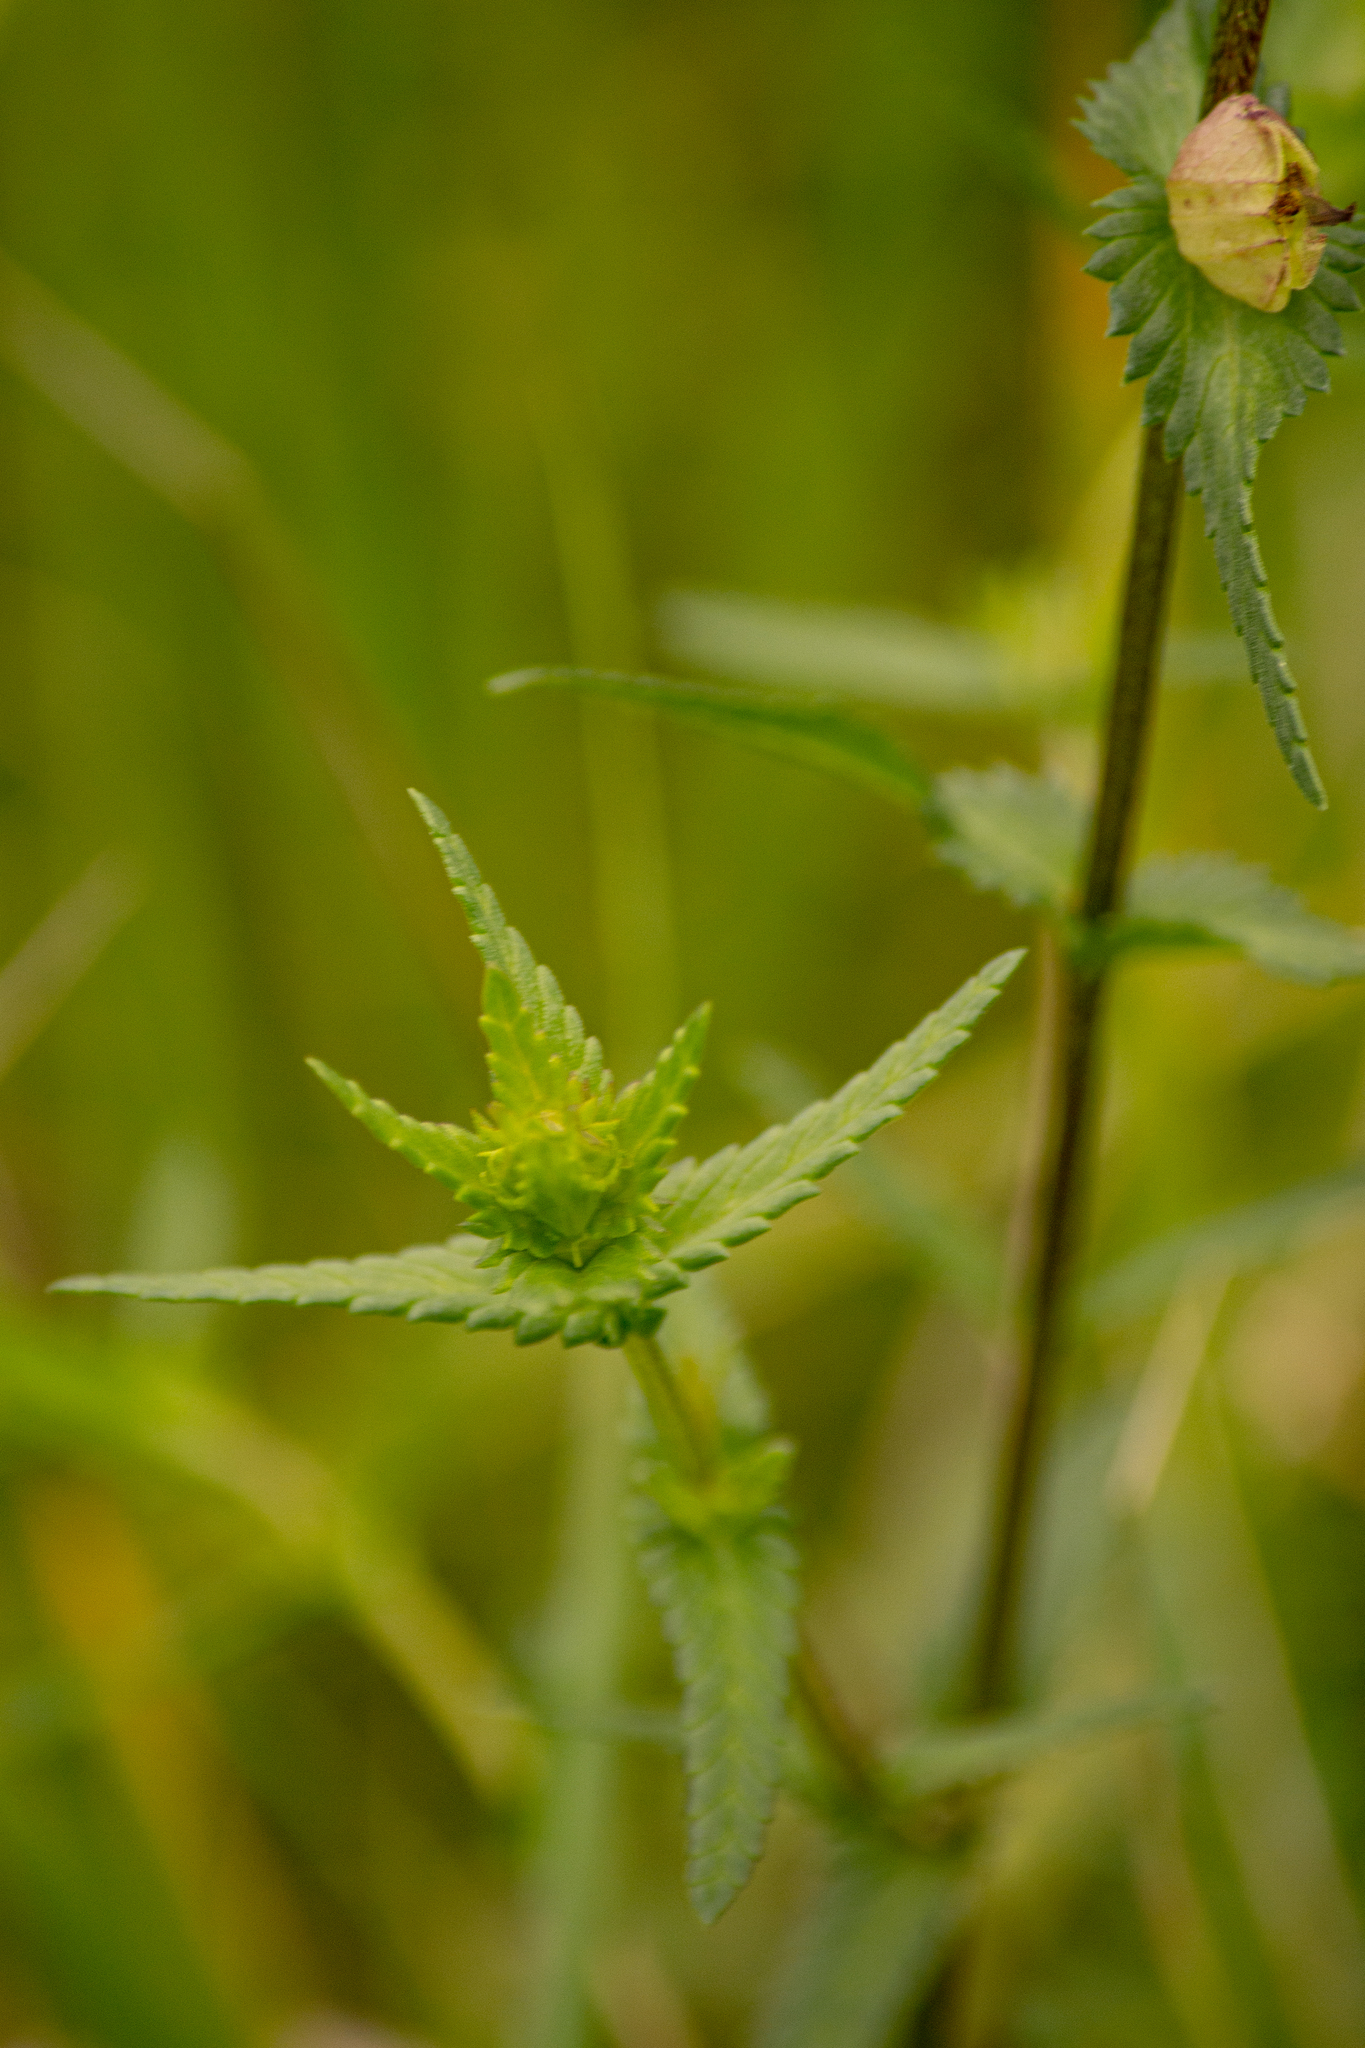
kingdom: Plantae
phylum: Tracheophyta
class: Magnoliopsida
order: Lamiales
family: Orobanchaceae
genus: Rhinanthus
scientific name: Rhinanthus serotinus
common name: Late-flowering yellow rattle
